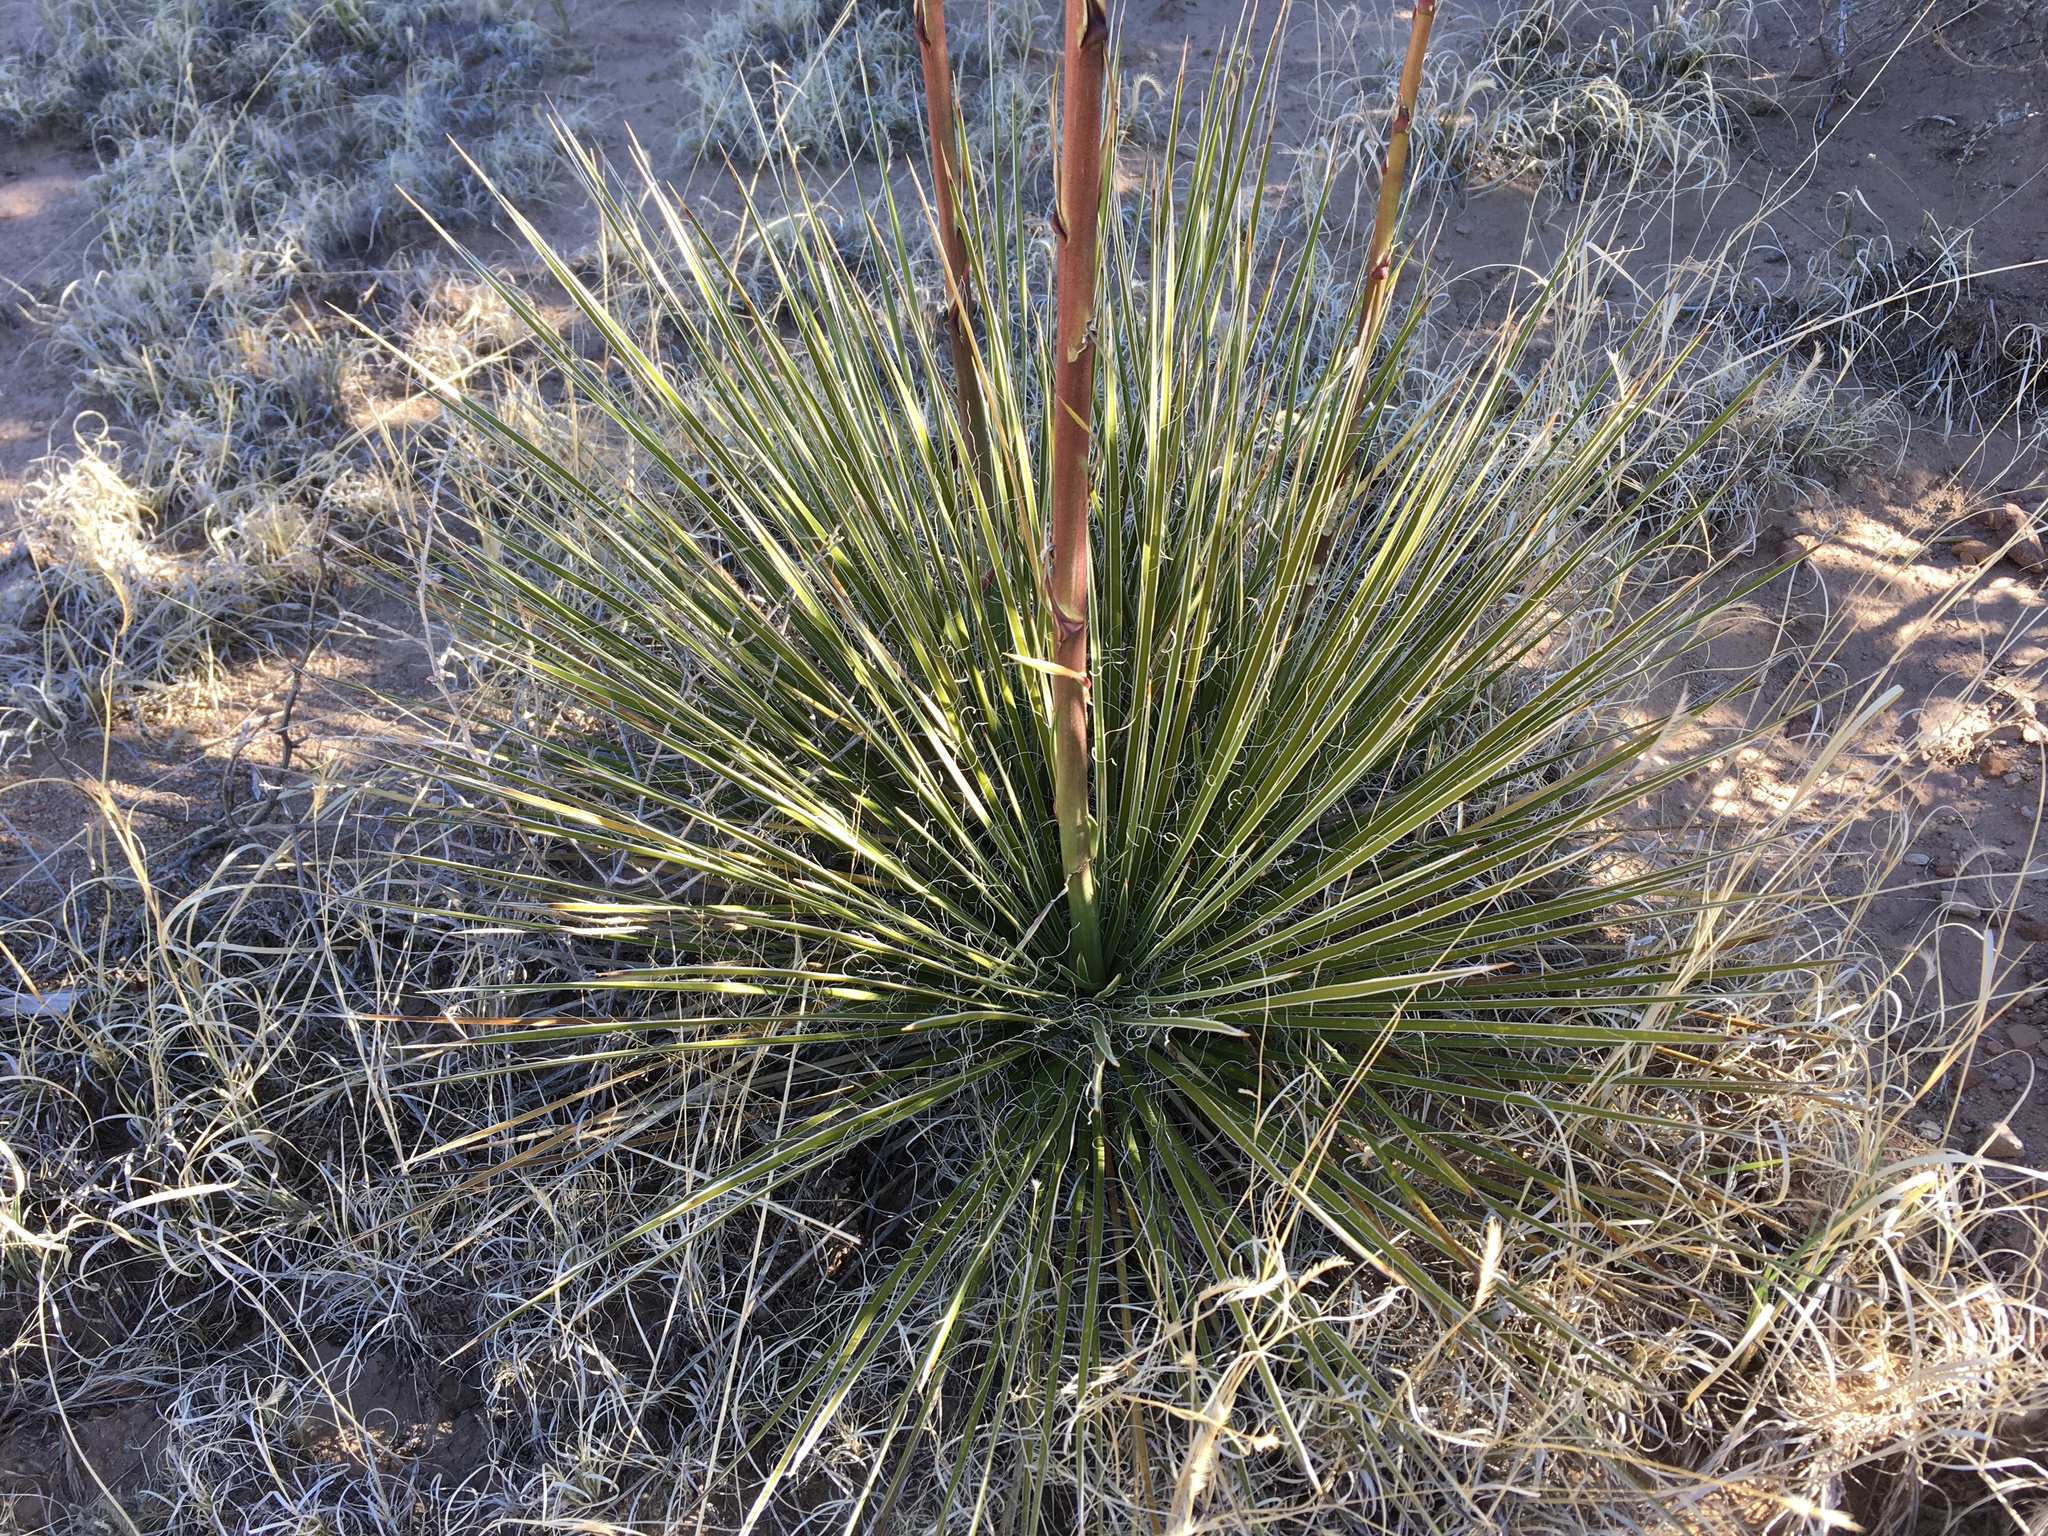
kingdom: Plantae
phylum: Tracheophyta
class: Liliopsida
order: Asparagales
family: Asparagaceae
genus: Yucca
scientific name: Yucca glauca
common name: Great plains yucca
